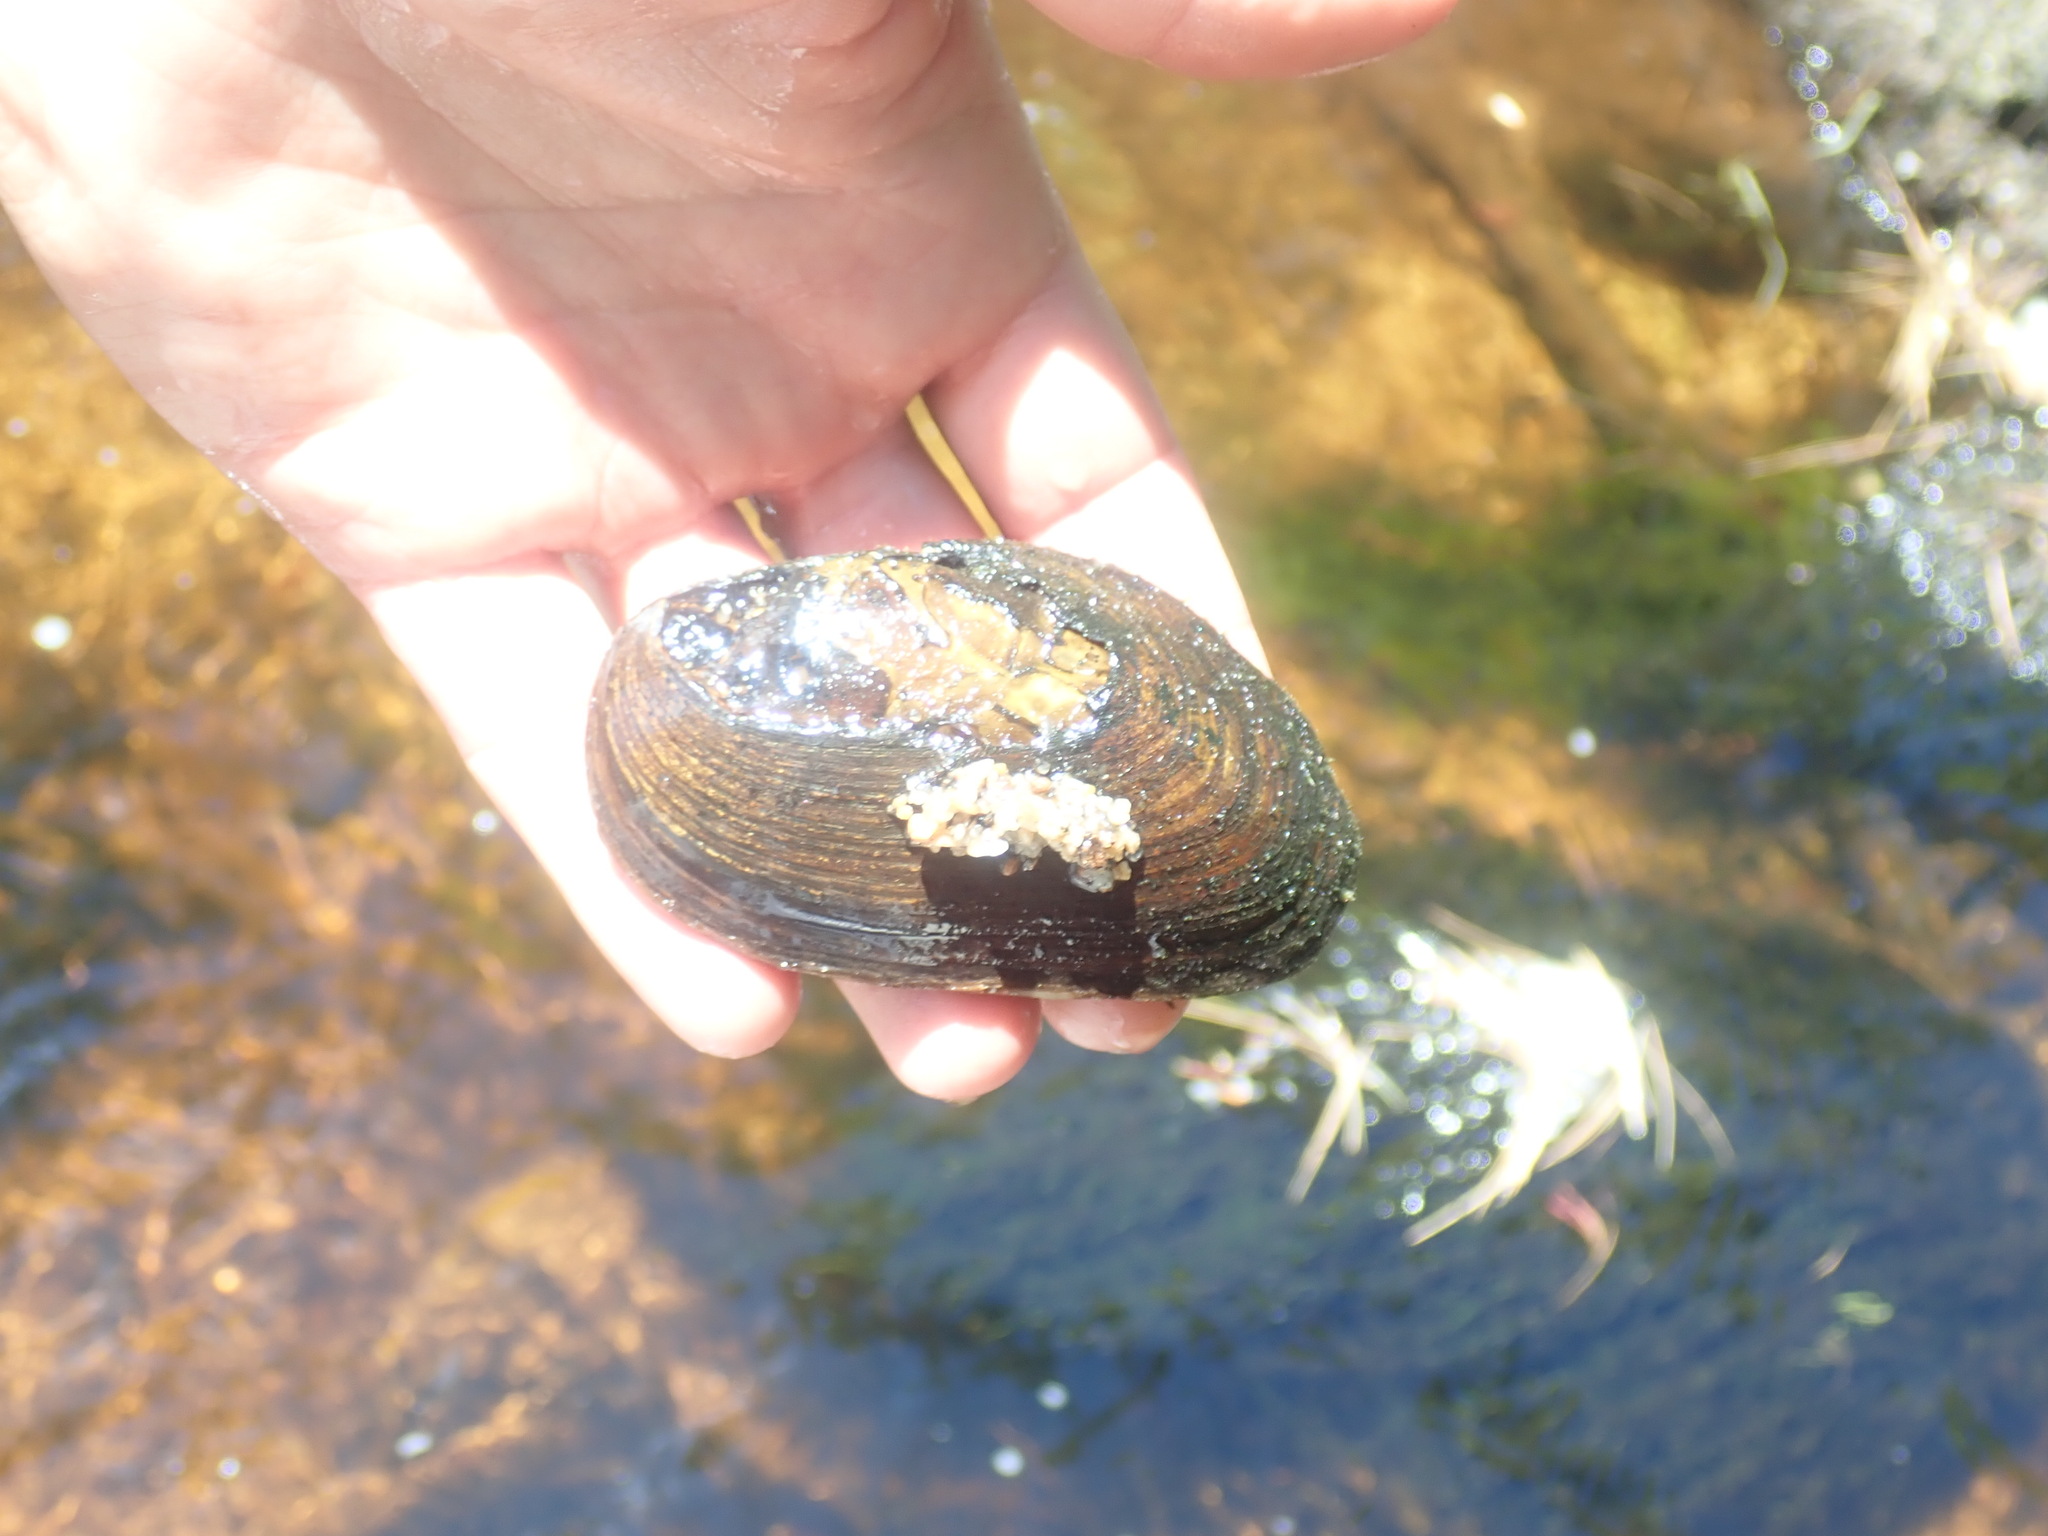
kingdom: Animalia
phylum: Mollusca
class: Bivalvia
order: Unionida
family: Unionidae
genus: Elliptio
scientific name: Elliptio complanata
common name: Eastern elliptio
